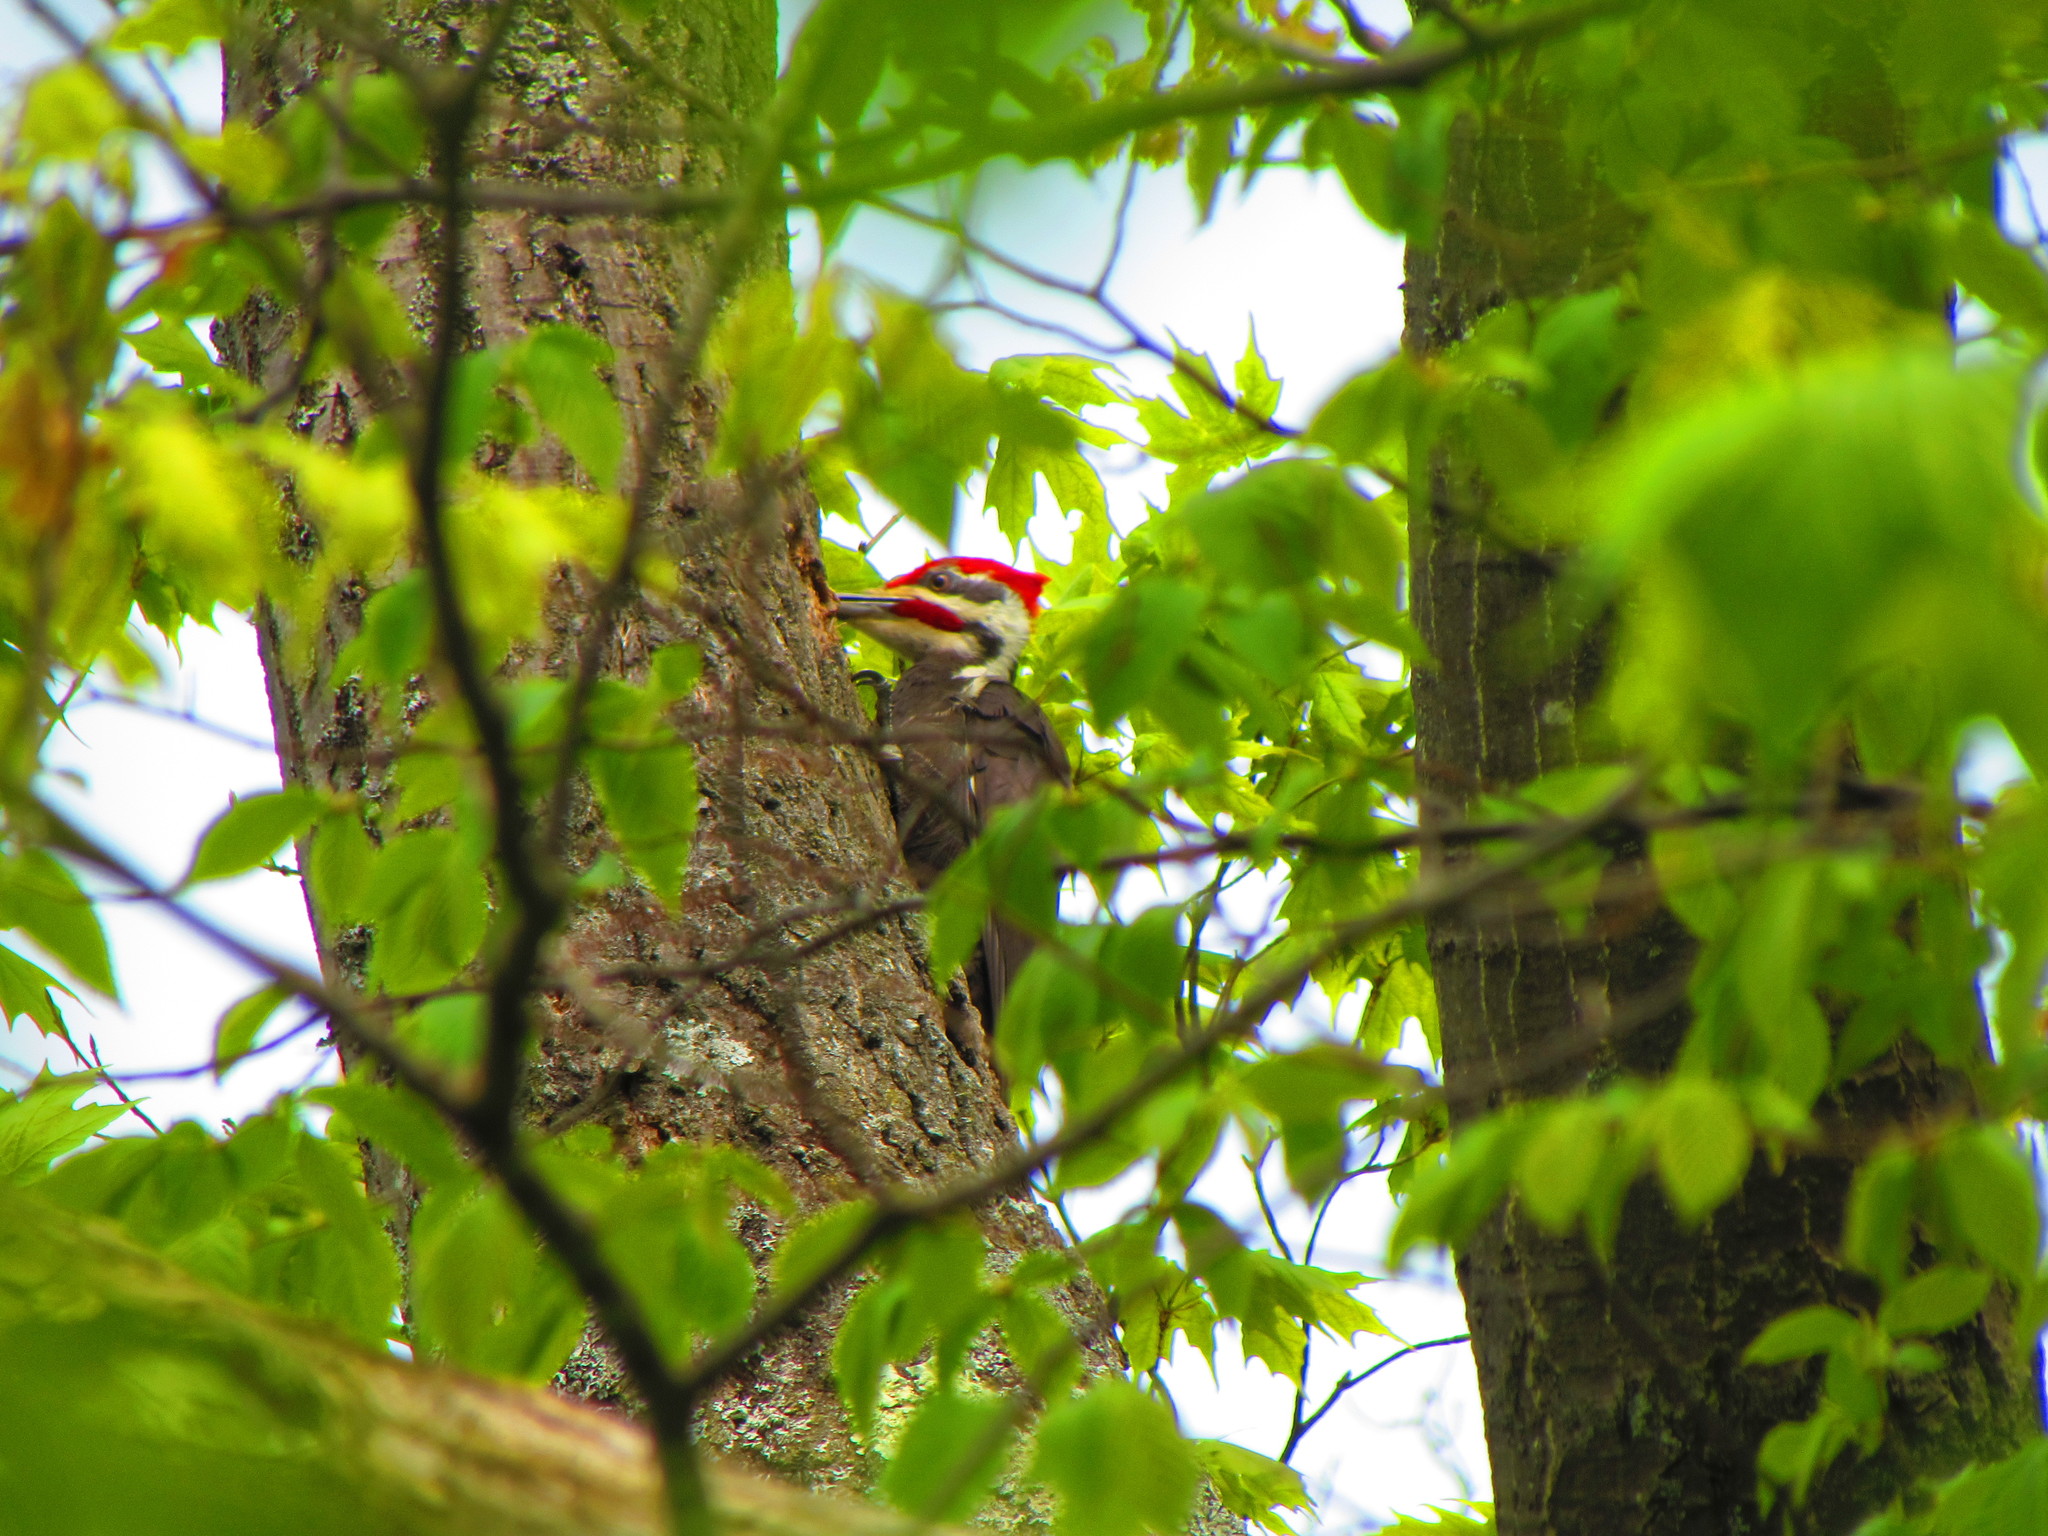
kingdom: Animalia
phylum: Chordata
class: Aves
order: Piciformes
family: Picidae
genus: Dryocopus
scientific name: Dryocopus pileatus
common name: Pileated woodpecker
